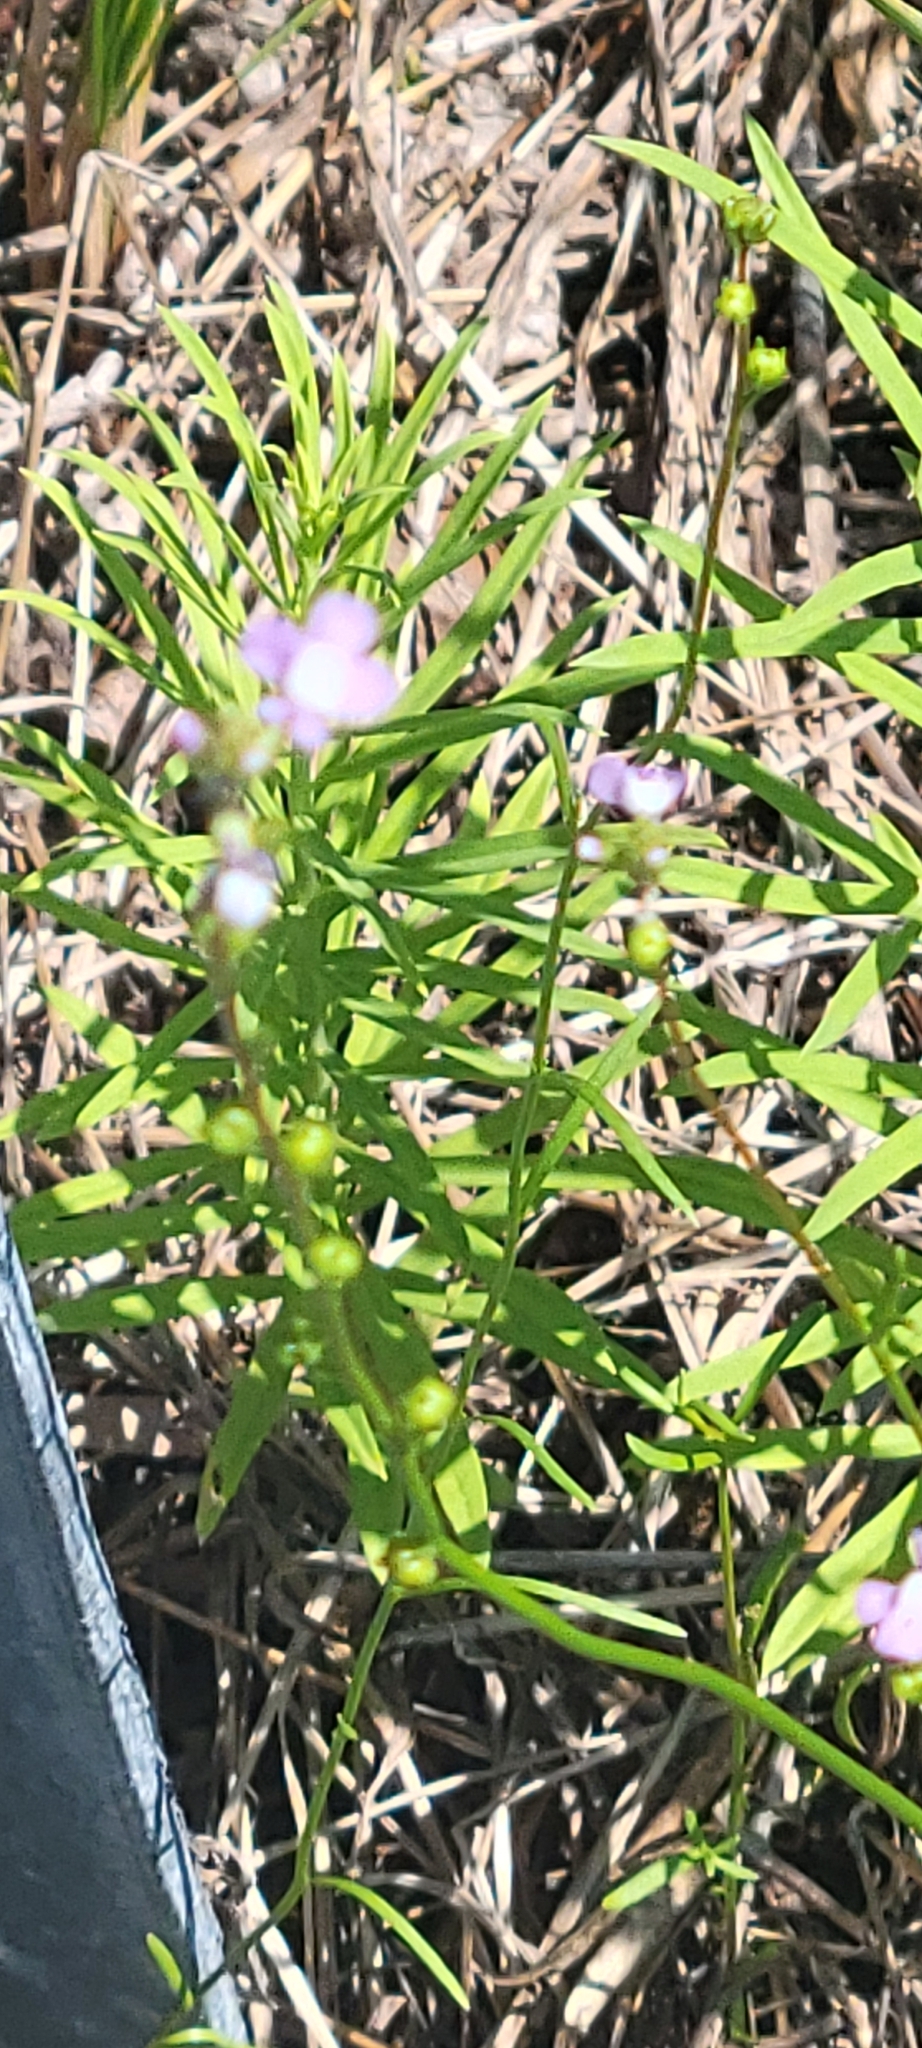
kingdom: Plantae
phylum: Tracheophyta
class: Magnoliopsida
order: Lamiales
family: Plantaginaceae
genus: Nuttallanthus
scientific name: Nuttallanthus canadensis
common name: Blue toadflax
